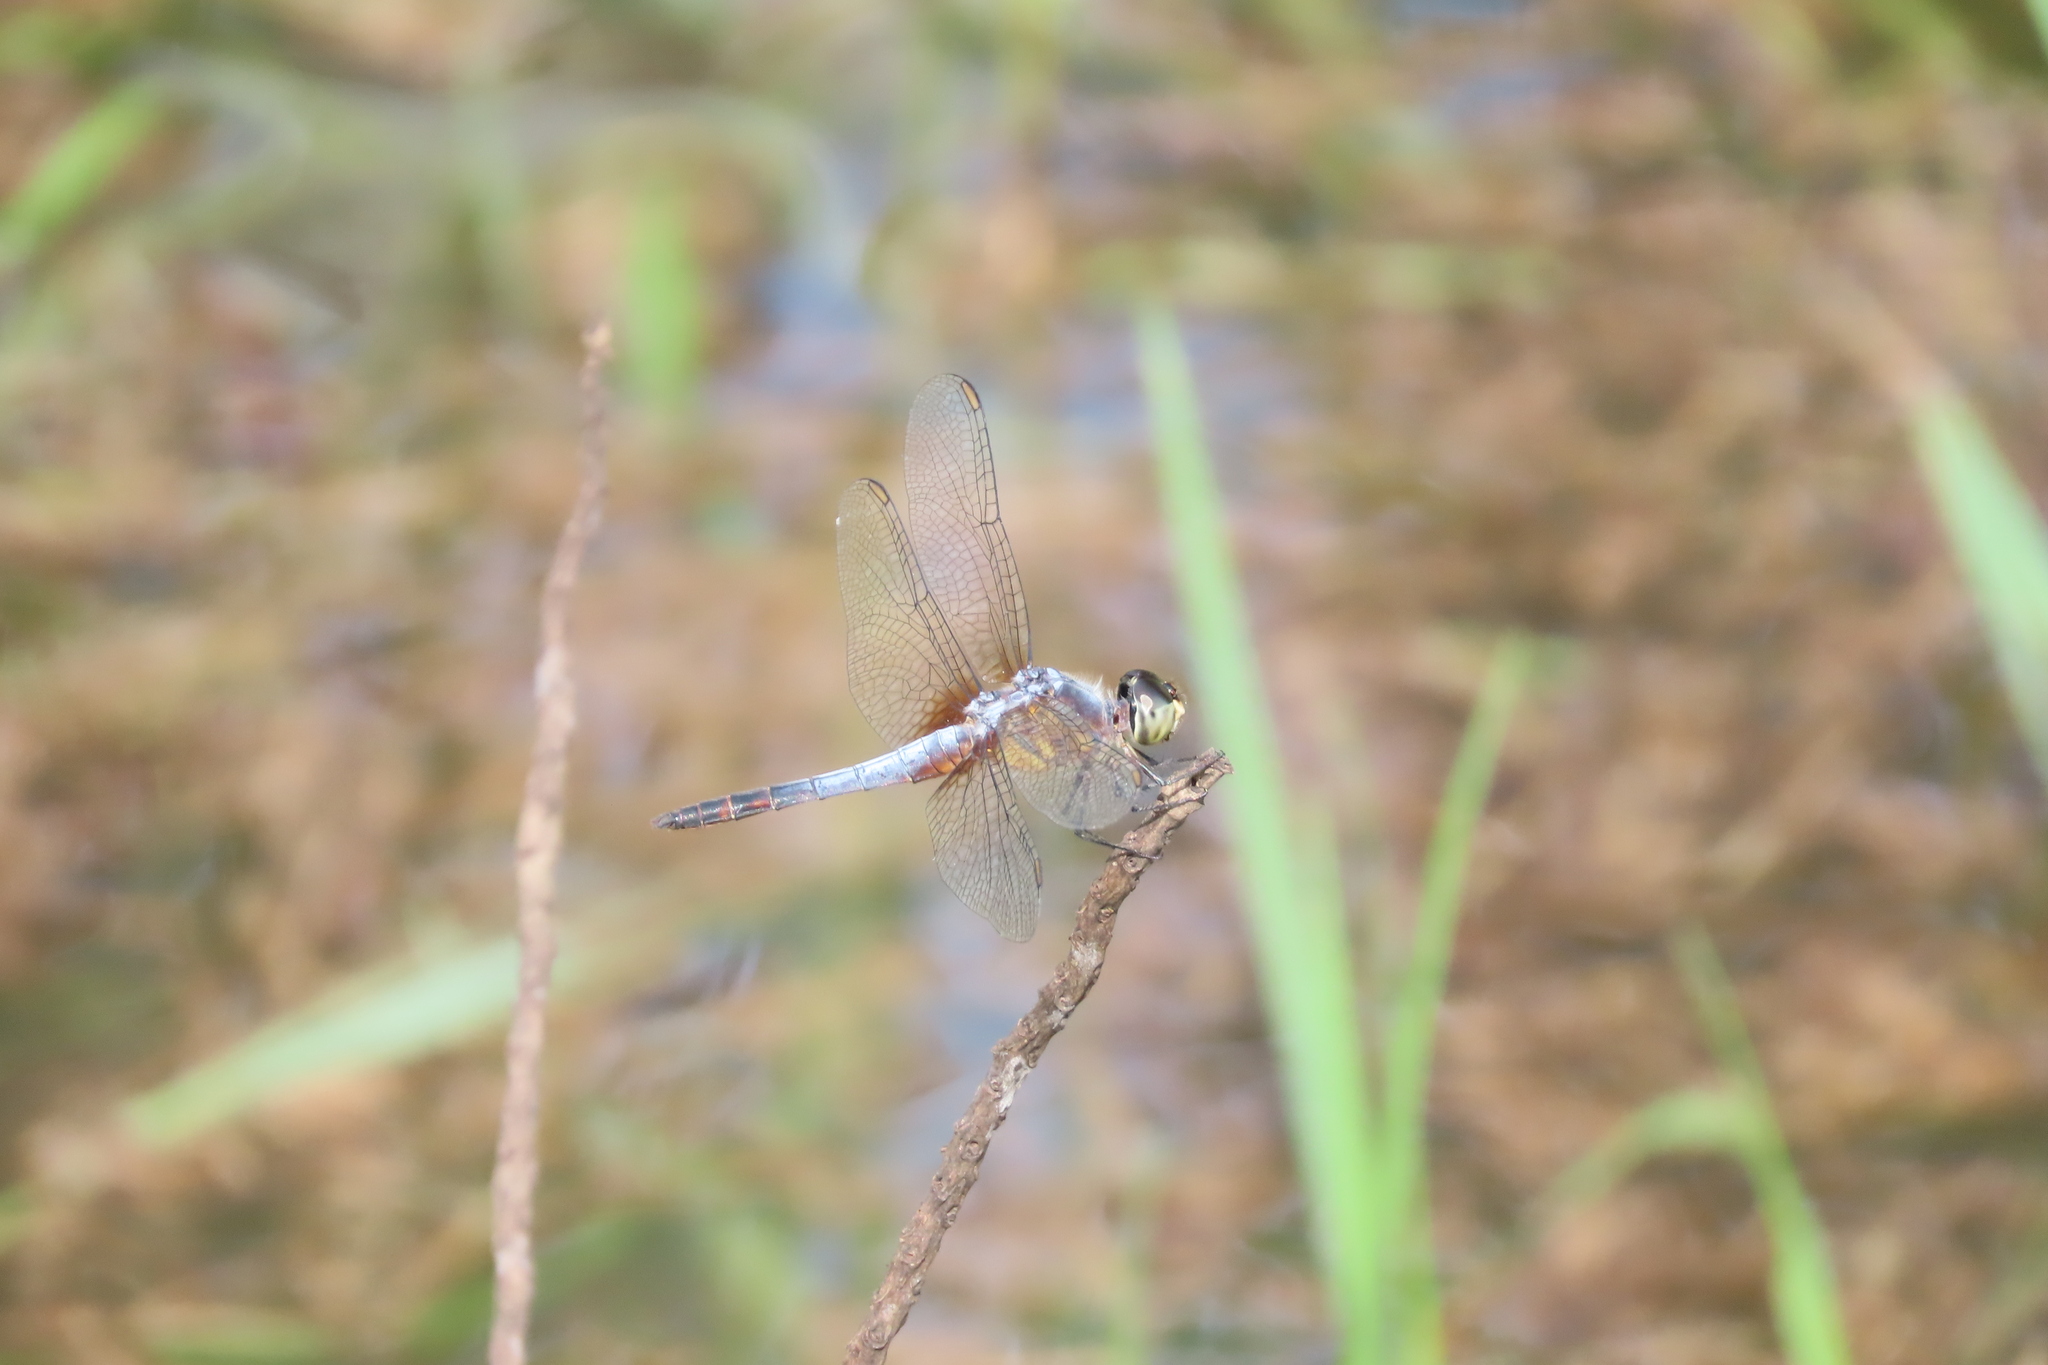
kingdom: Animalia
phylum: Arthropoda
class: Insecta
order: Odonata
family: Libellulidae
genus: Brachydiplax
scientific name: Brachydiplax chalybea
